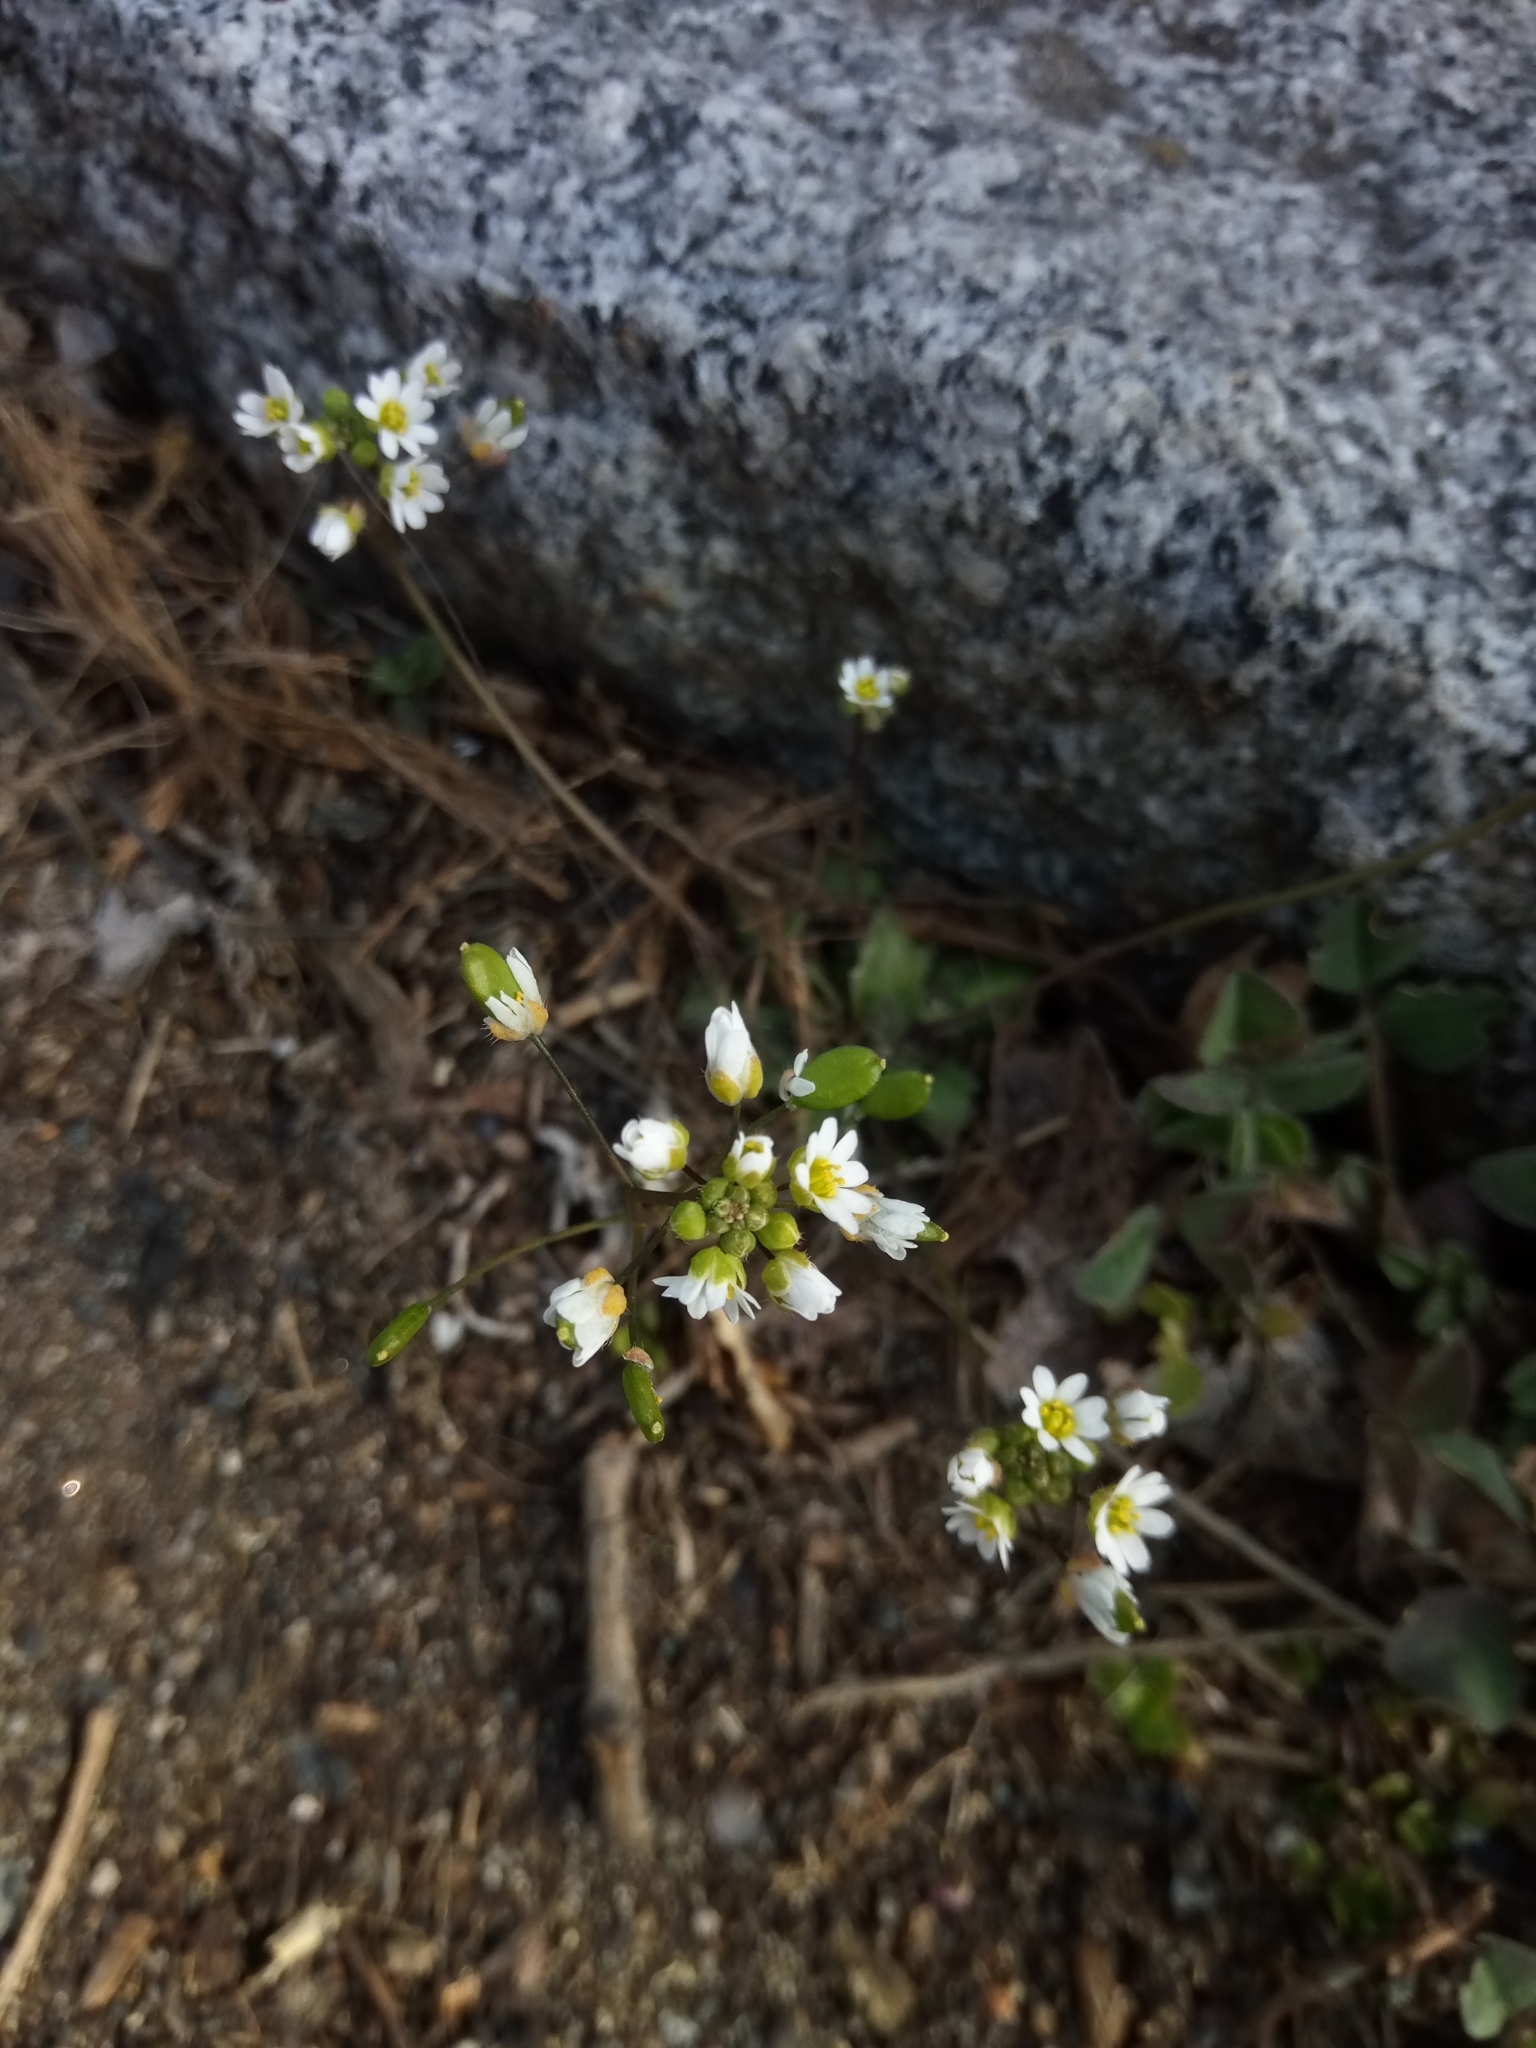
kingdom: Plantae
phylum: Tracheophyta
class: Magnoliopsida
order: Brassicales
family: Brassicaceae
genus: Draba
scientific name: Draba verna
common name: Spring draba
